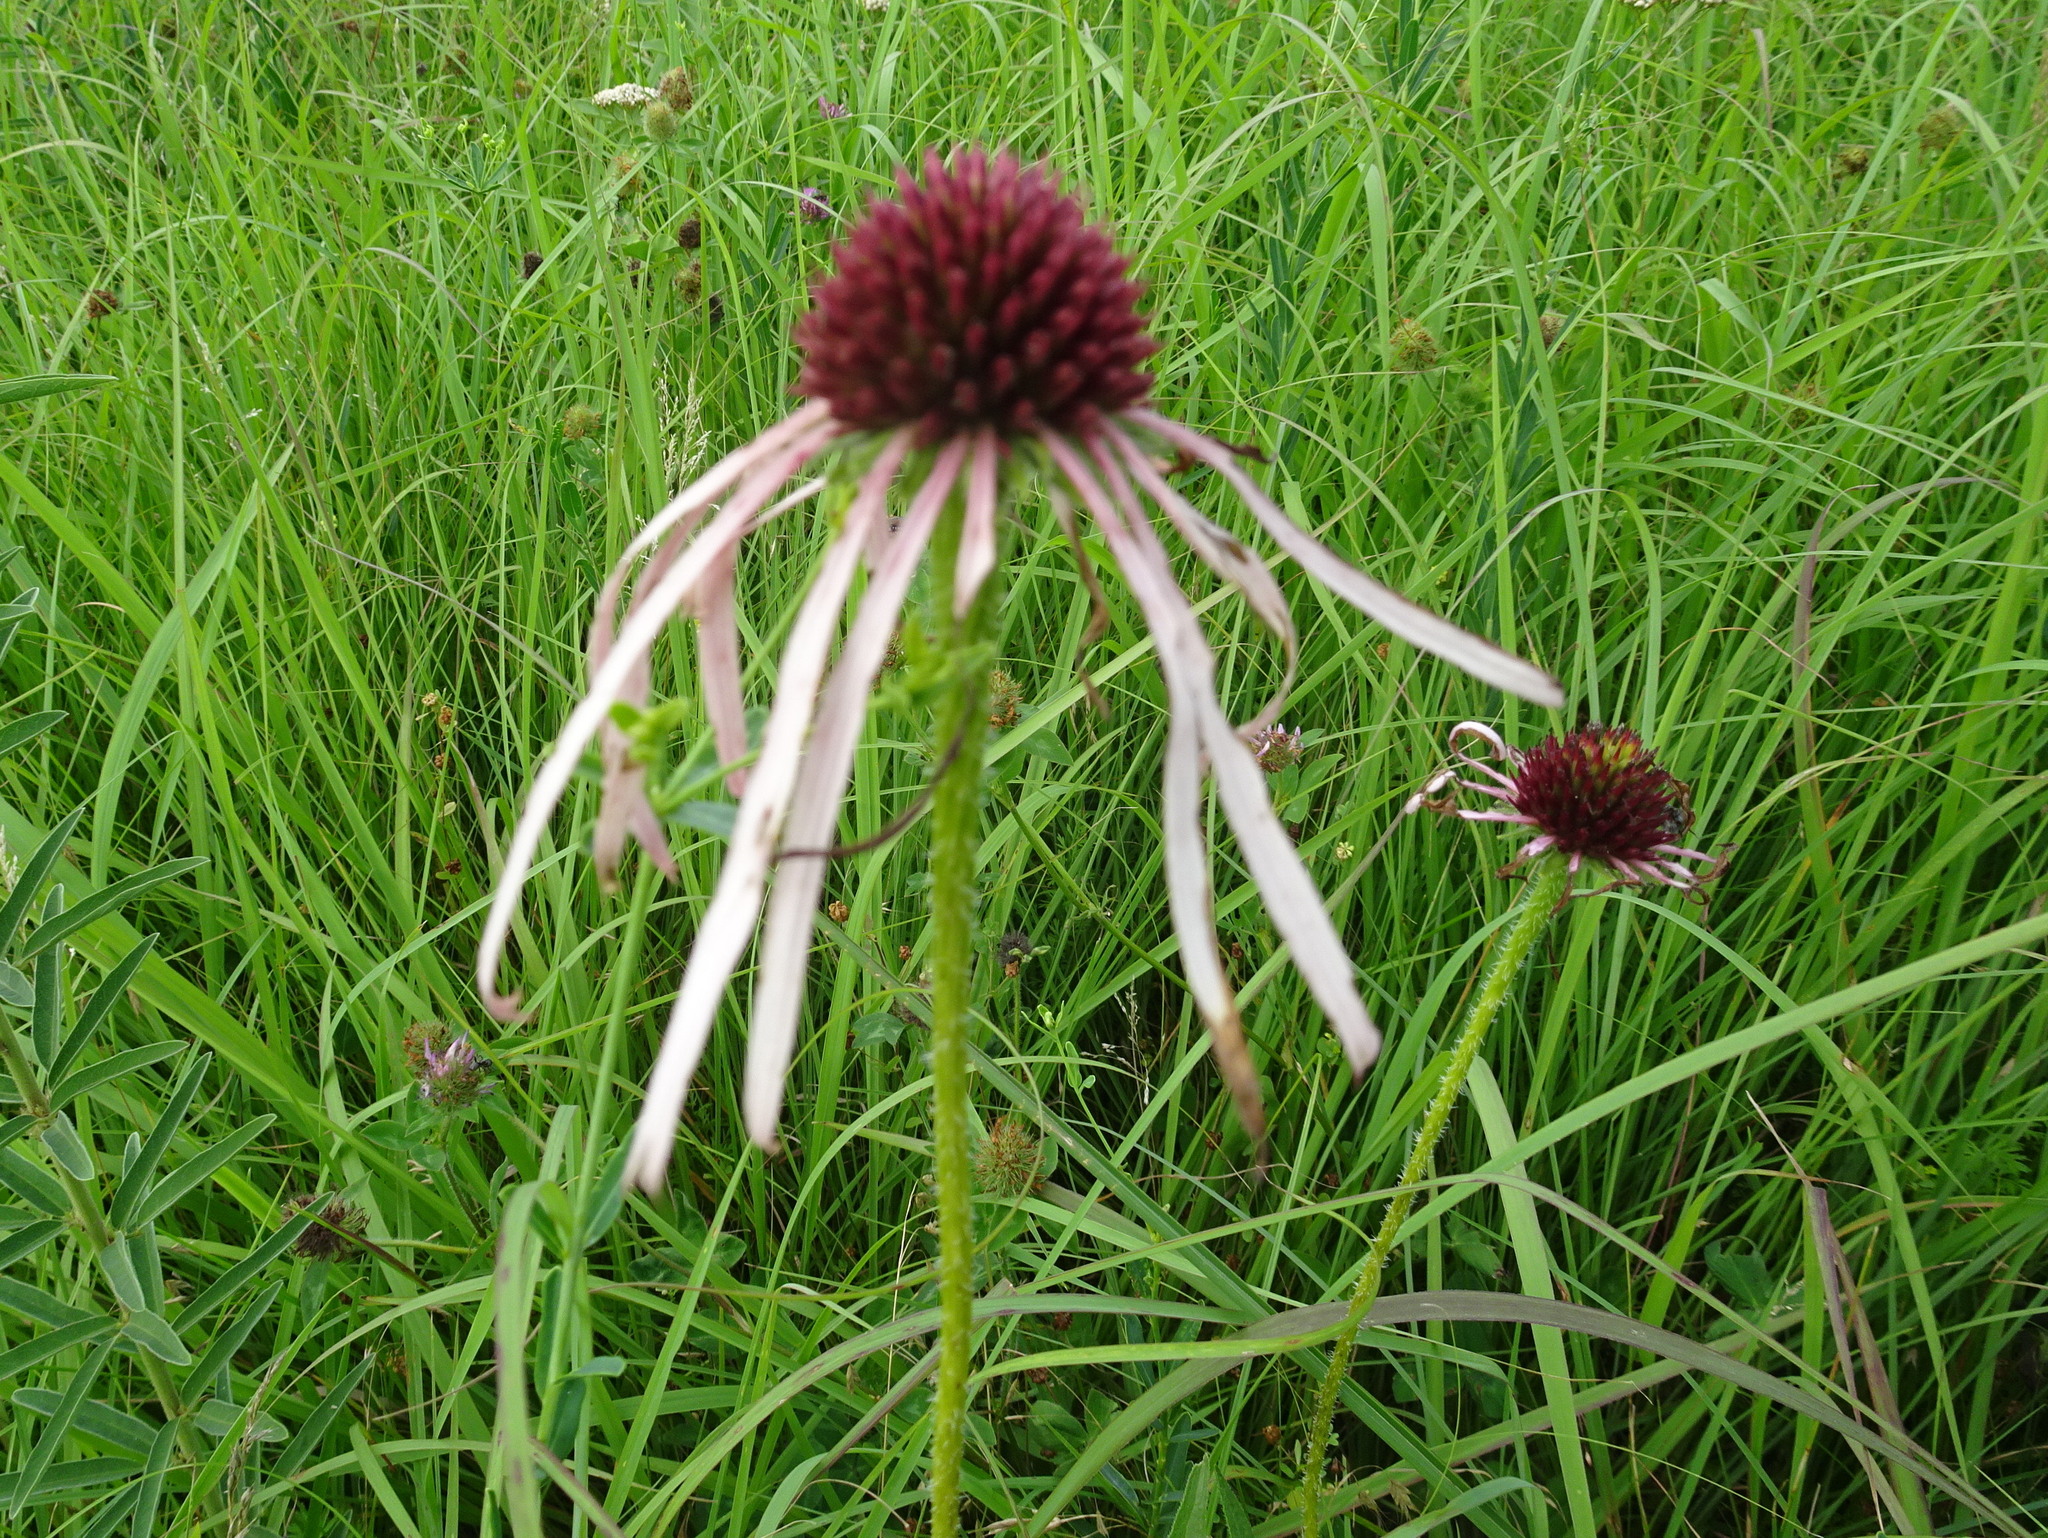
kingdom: Plantae
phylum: Tracheophyta
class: Magnoliopsida
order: Asterales
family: Asteraceae
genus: Echinacea
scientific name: Echinacea pallida
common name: Pale echinacea
